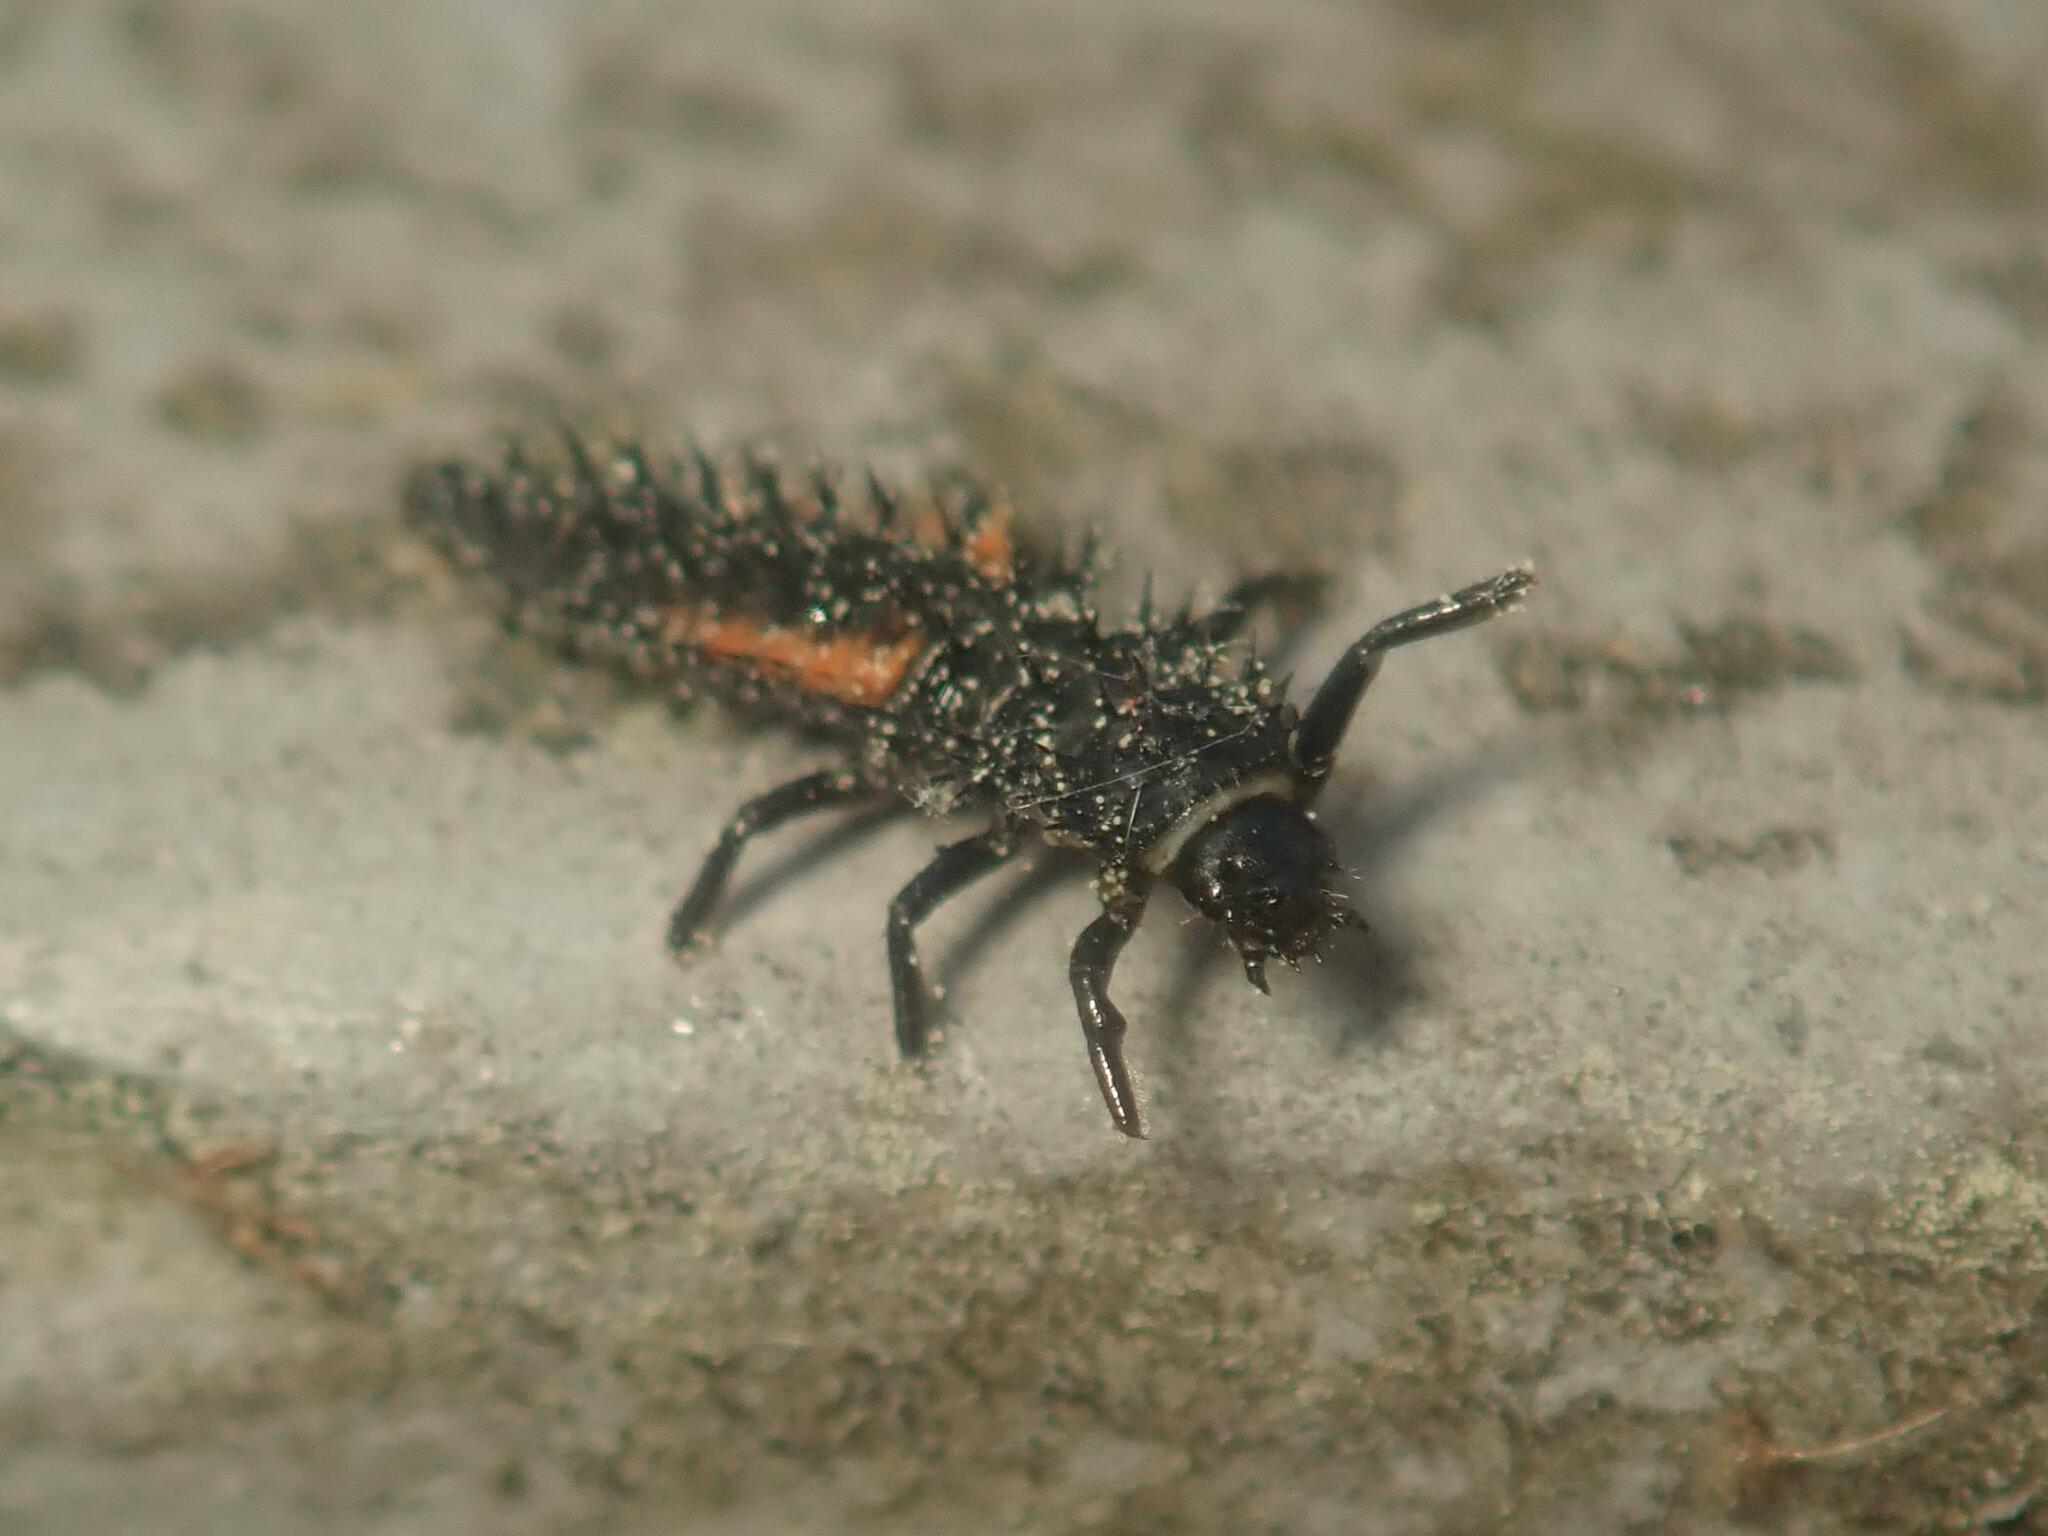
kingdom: Animalia
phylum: Arthropoda
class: Insecta
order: Coleoptera
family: Coccinellidae
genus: Harmonia
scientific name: Harmonia axyridis
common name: Harlequin ladybird
